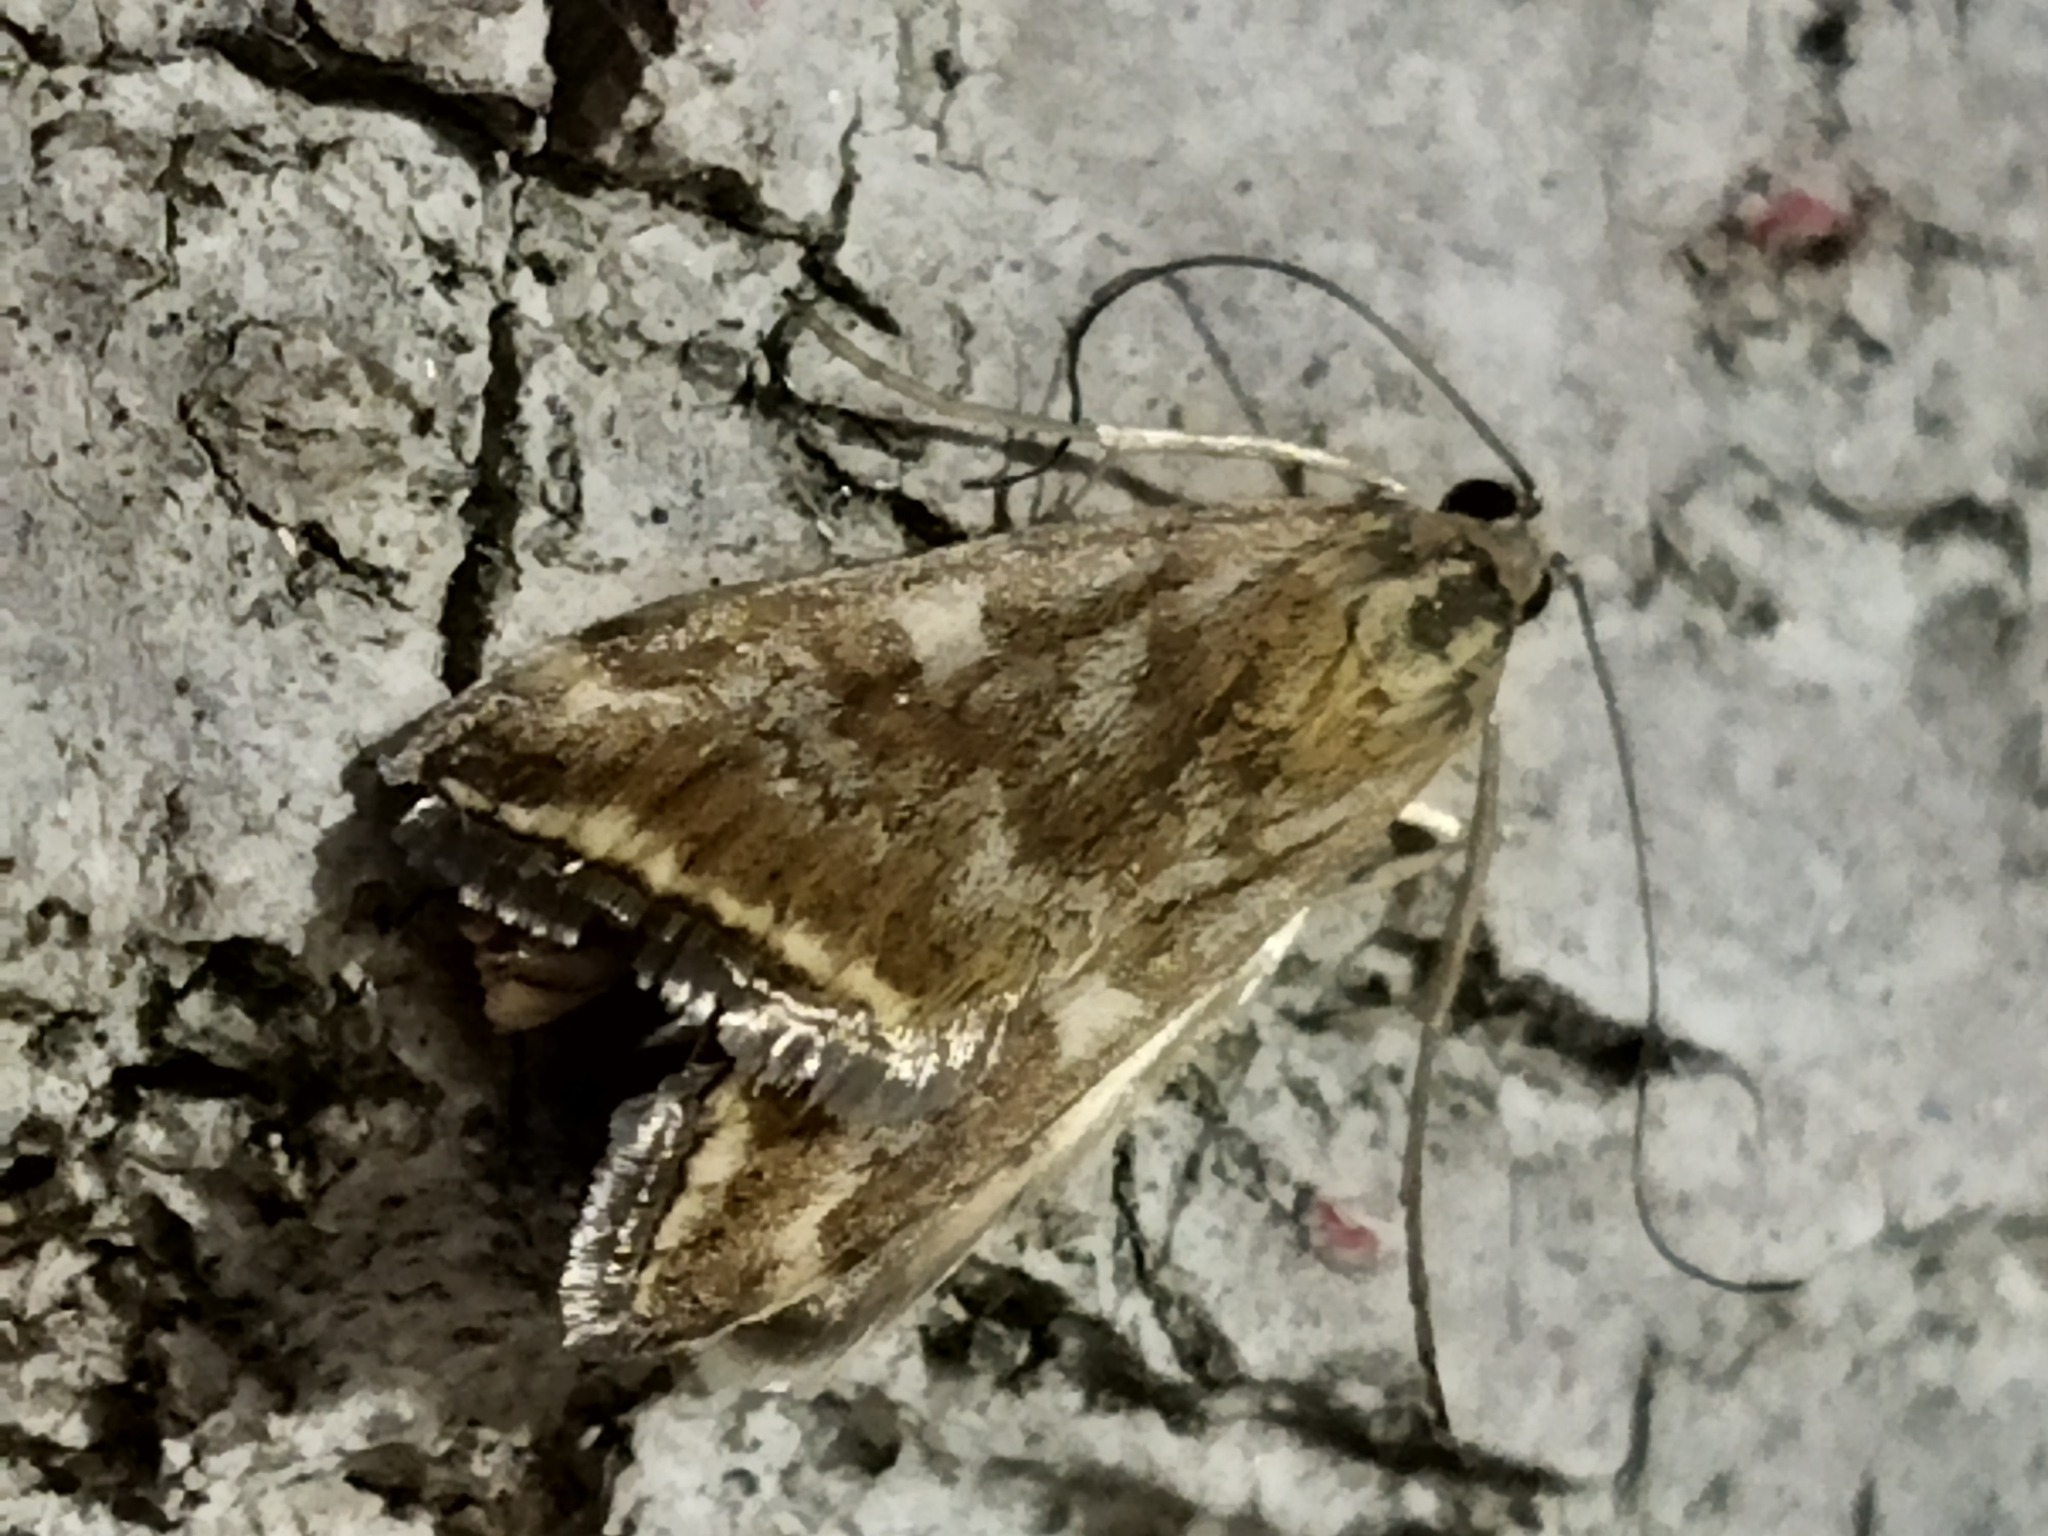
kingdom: Animalia
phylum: Arthropoda
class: Insecta
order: Lepidoptera
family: Crambidae
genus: Loxostege
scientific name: Loxostege sticticalis
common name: Crambid moth
